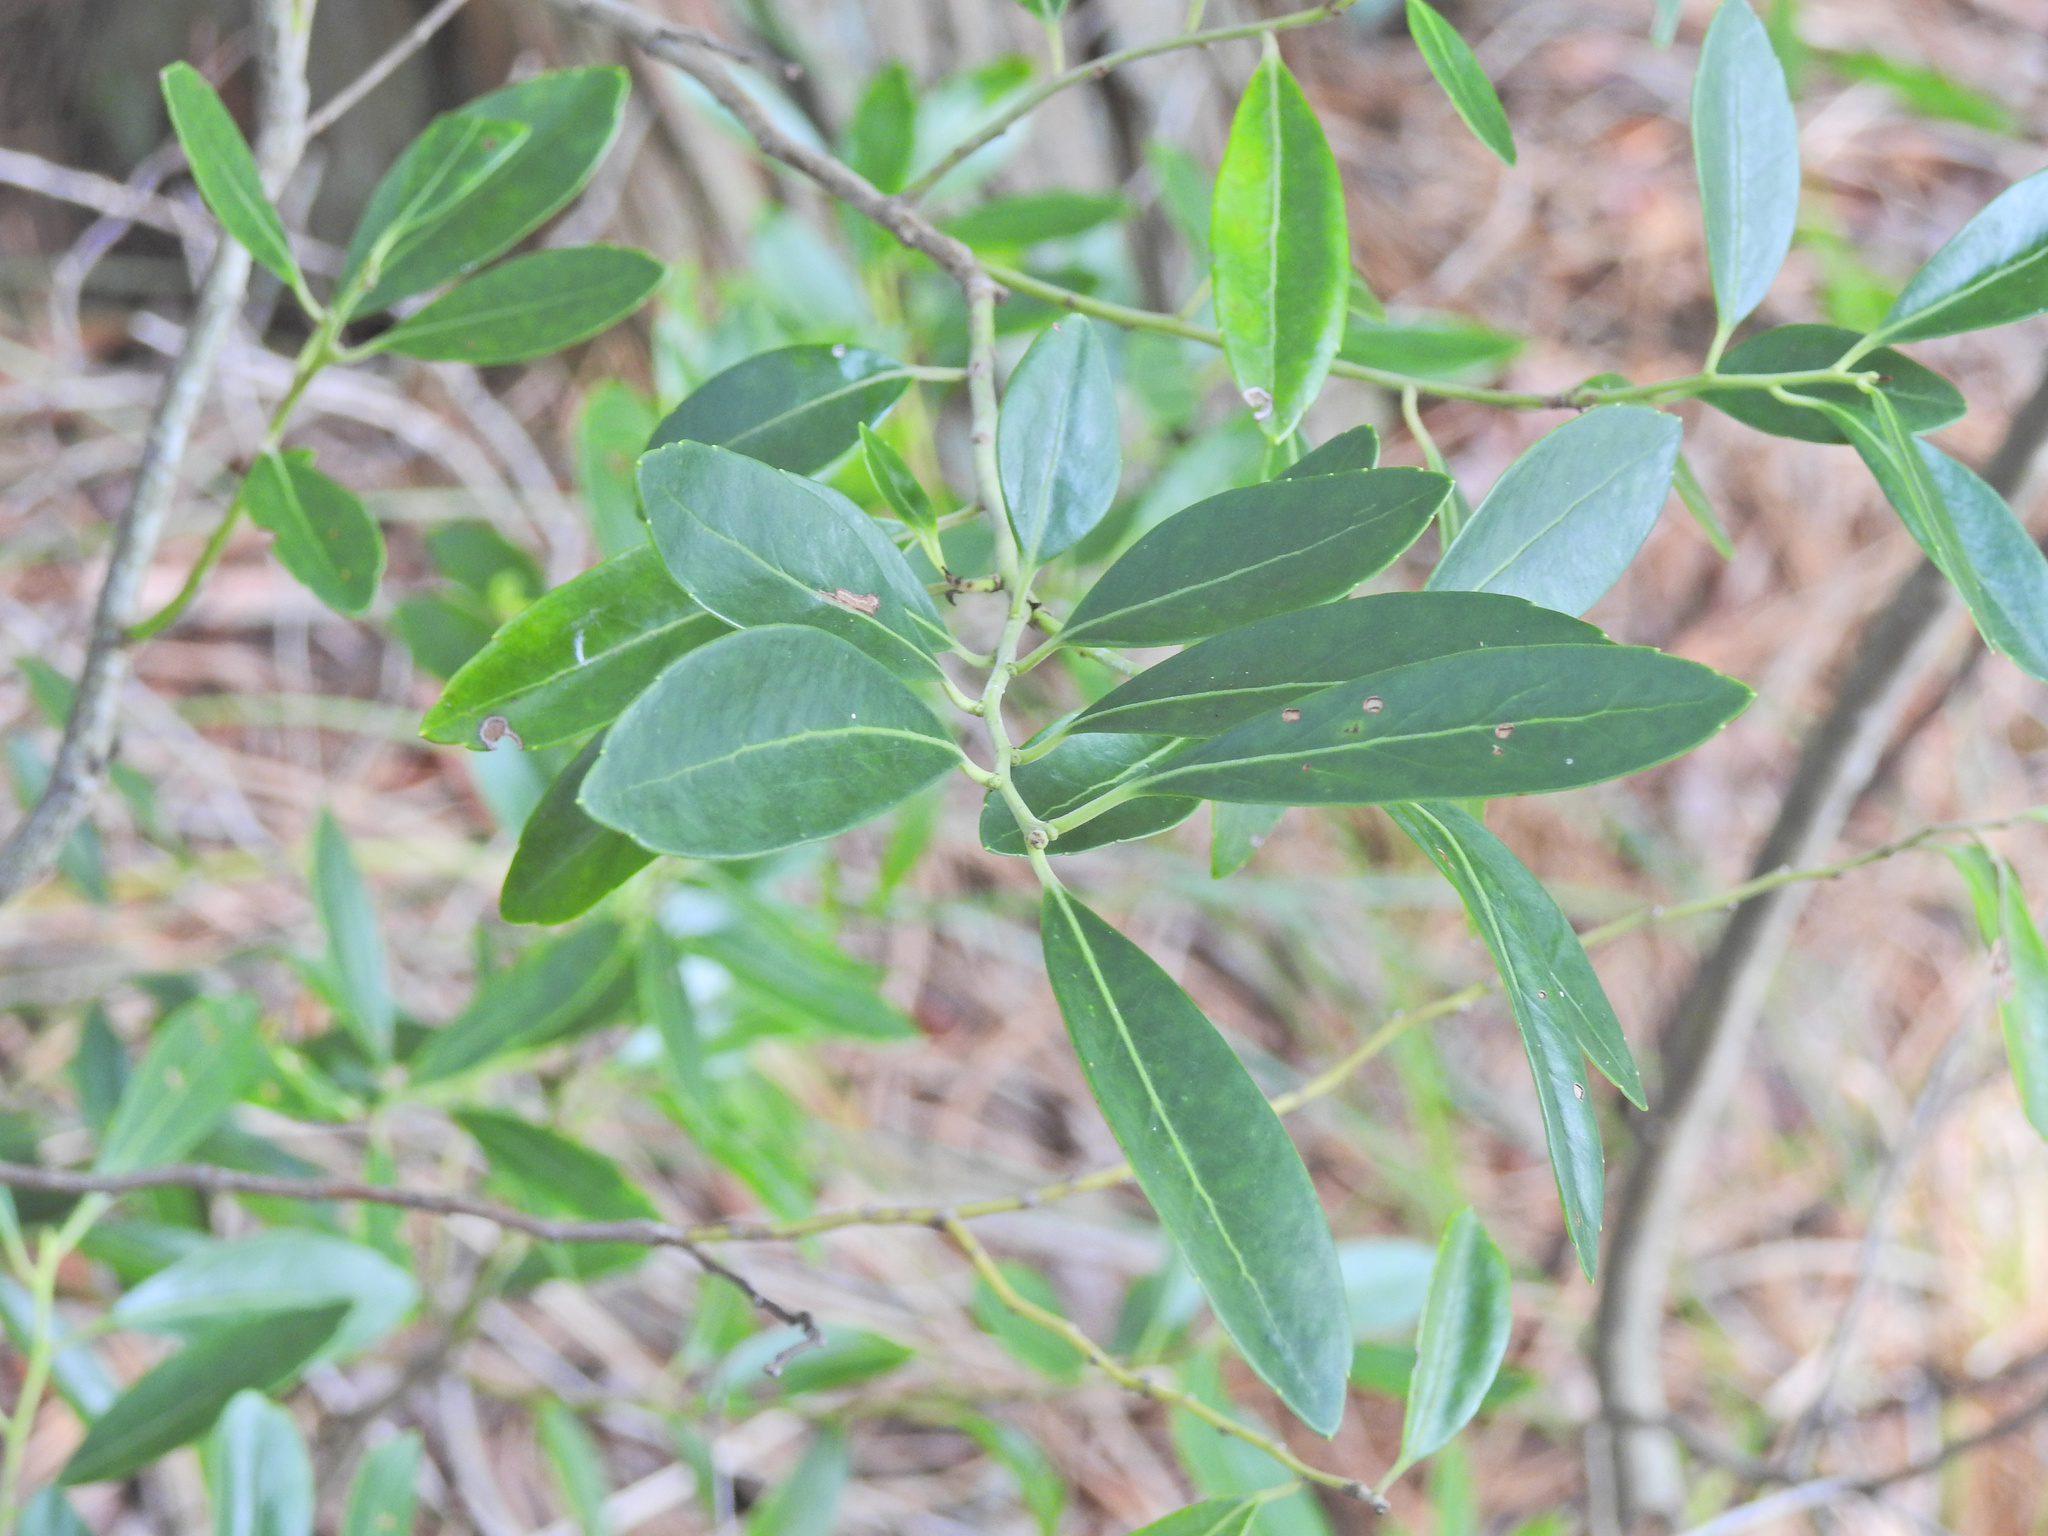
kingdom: Plantae
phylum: Tracheophyta
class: Magnoliopsida
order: Aquifoliales
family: Aquifoliaceae
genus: Ilex
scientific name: Ilex glabra
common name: Bitter gallberry
